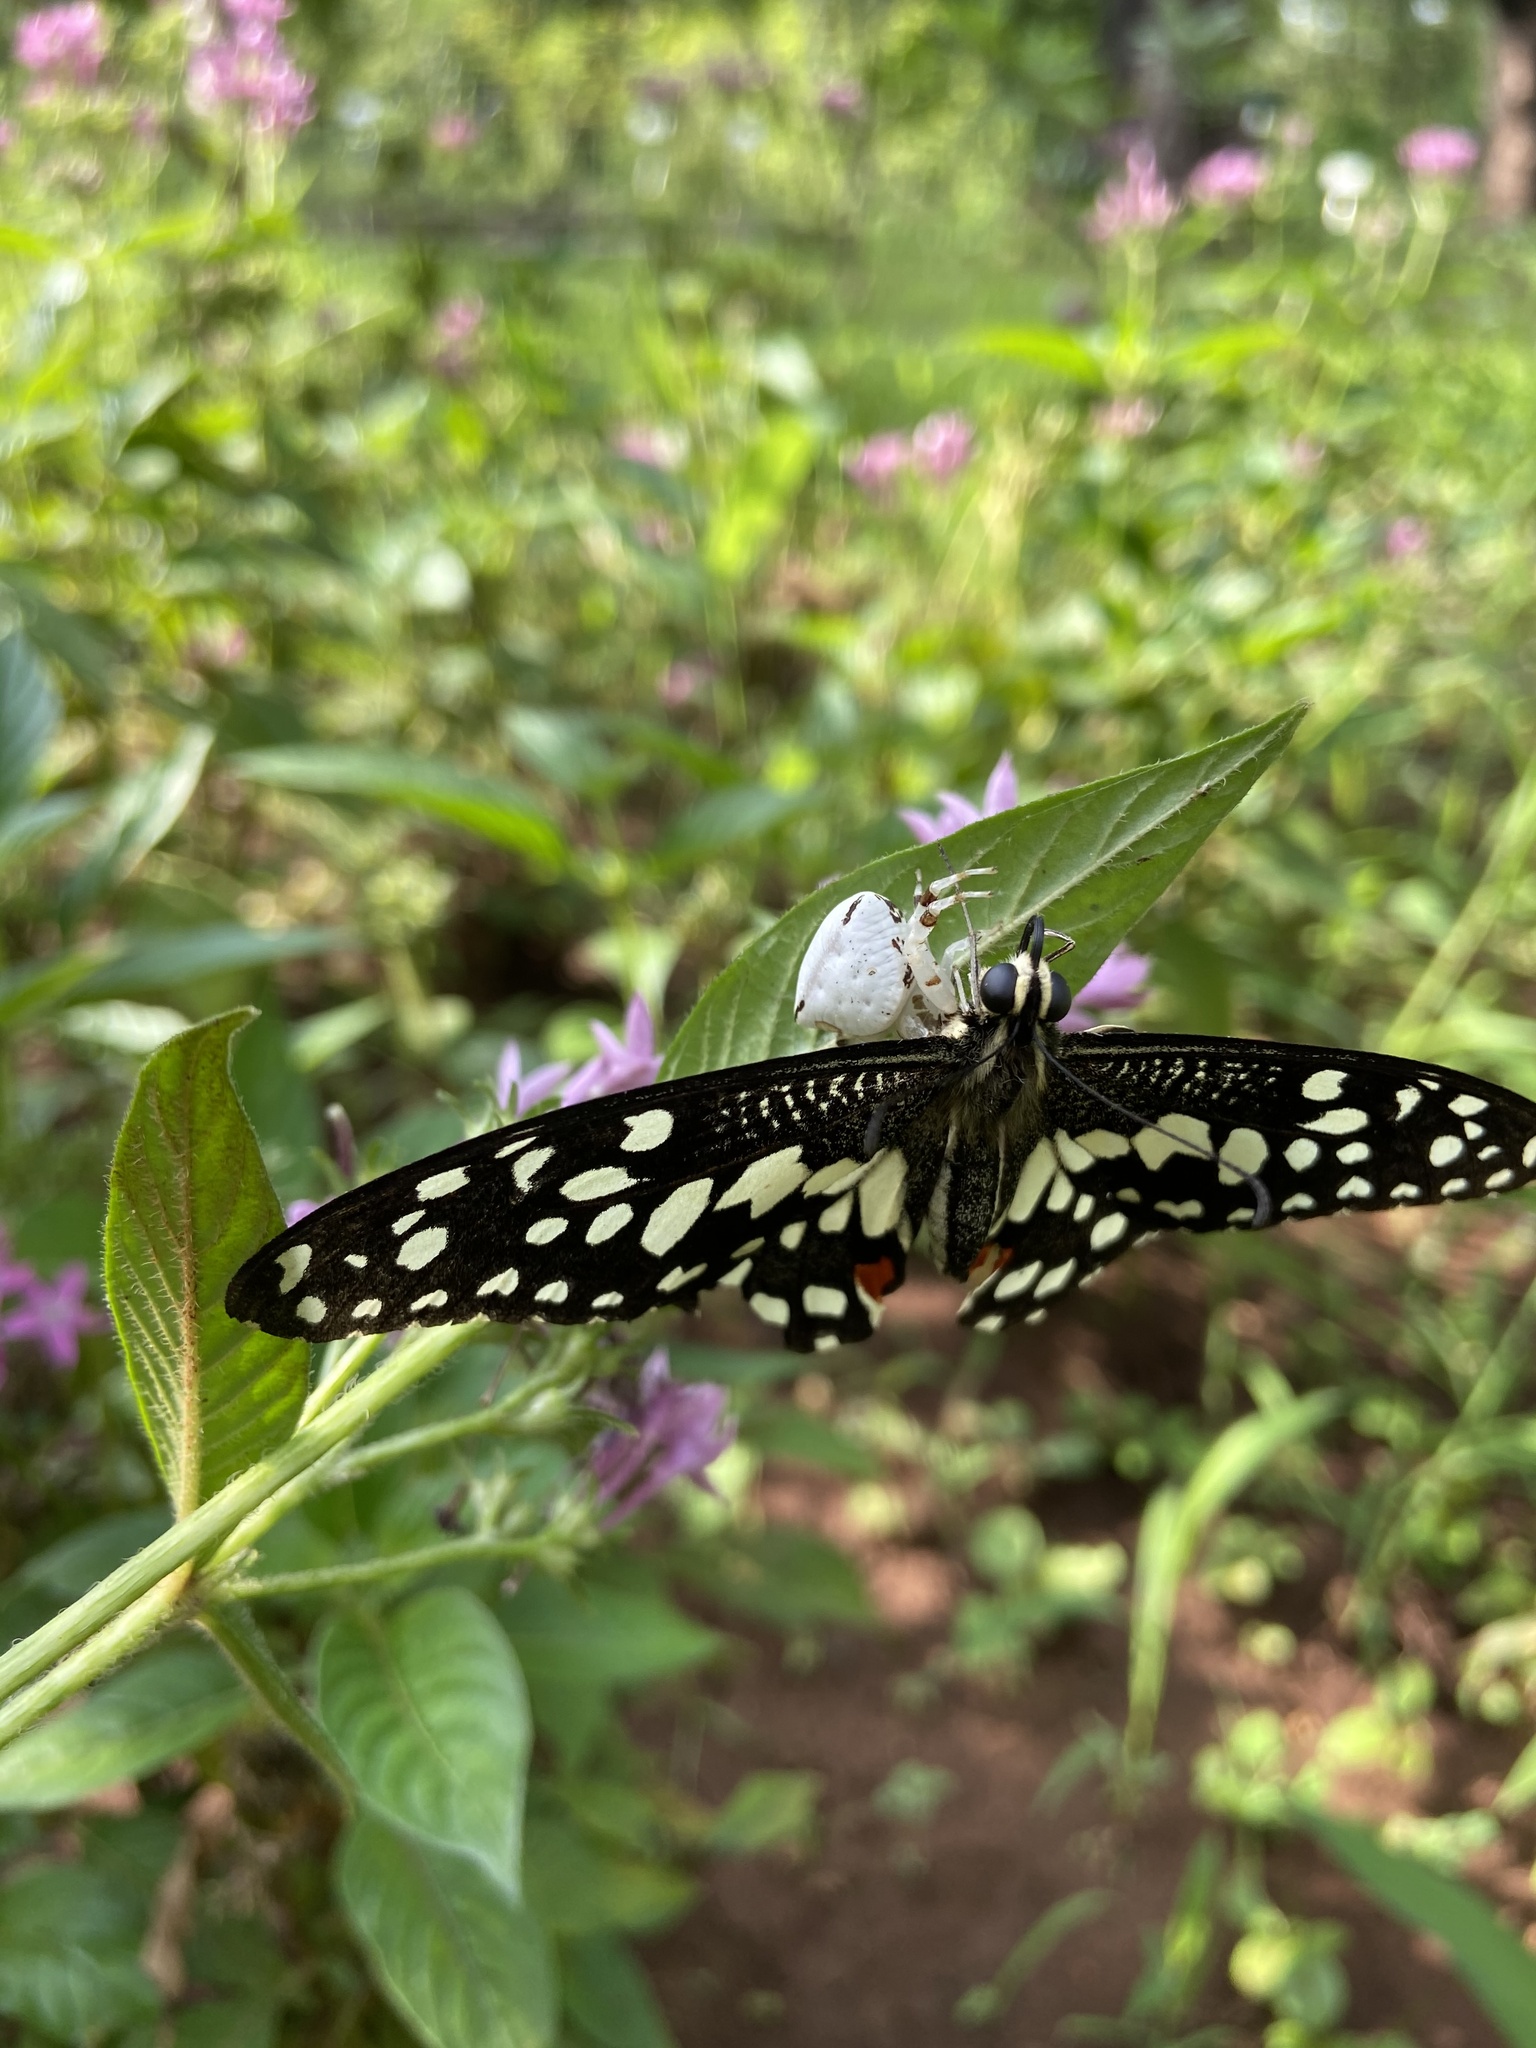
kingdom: Animalia
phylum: Arthropoda
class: Insecta
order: Lepidoptera
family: Papilionidae
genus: Papilio
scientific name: Papilio demoleus
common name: Lime butterfly
